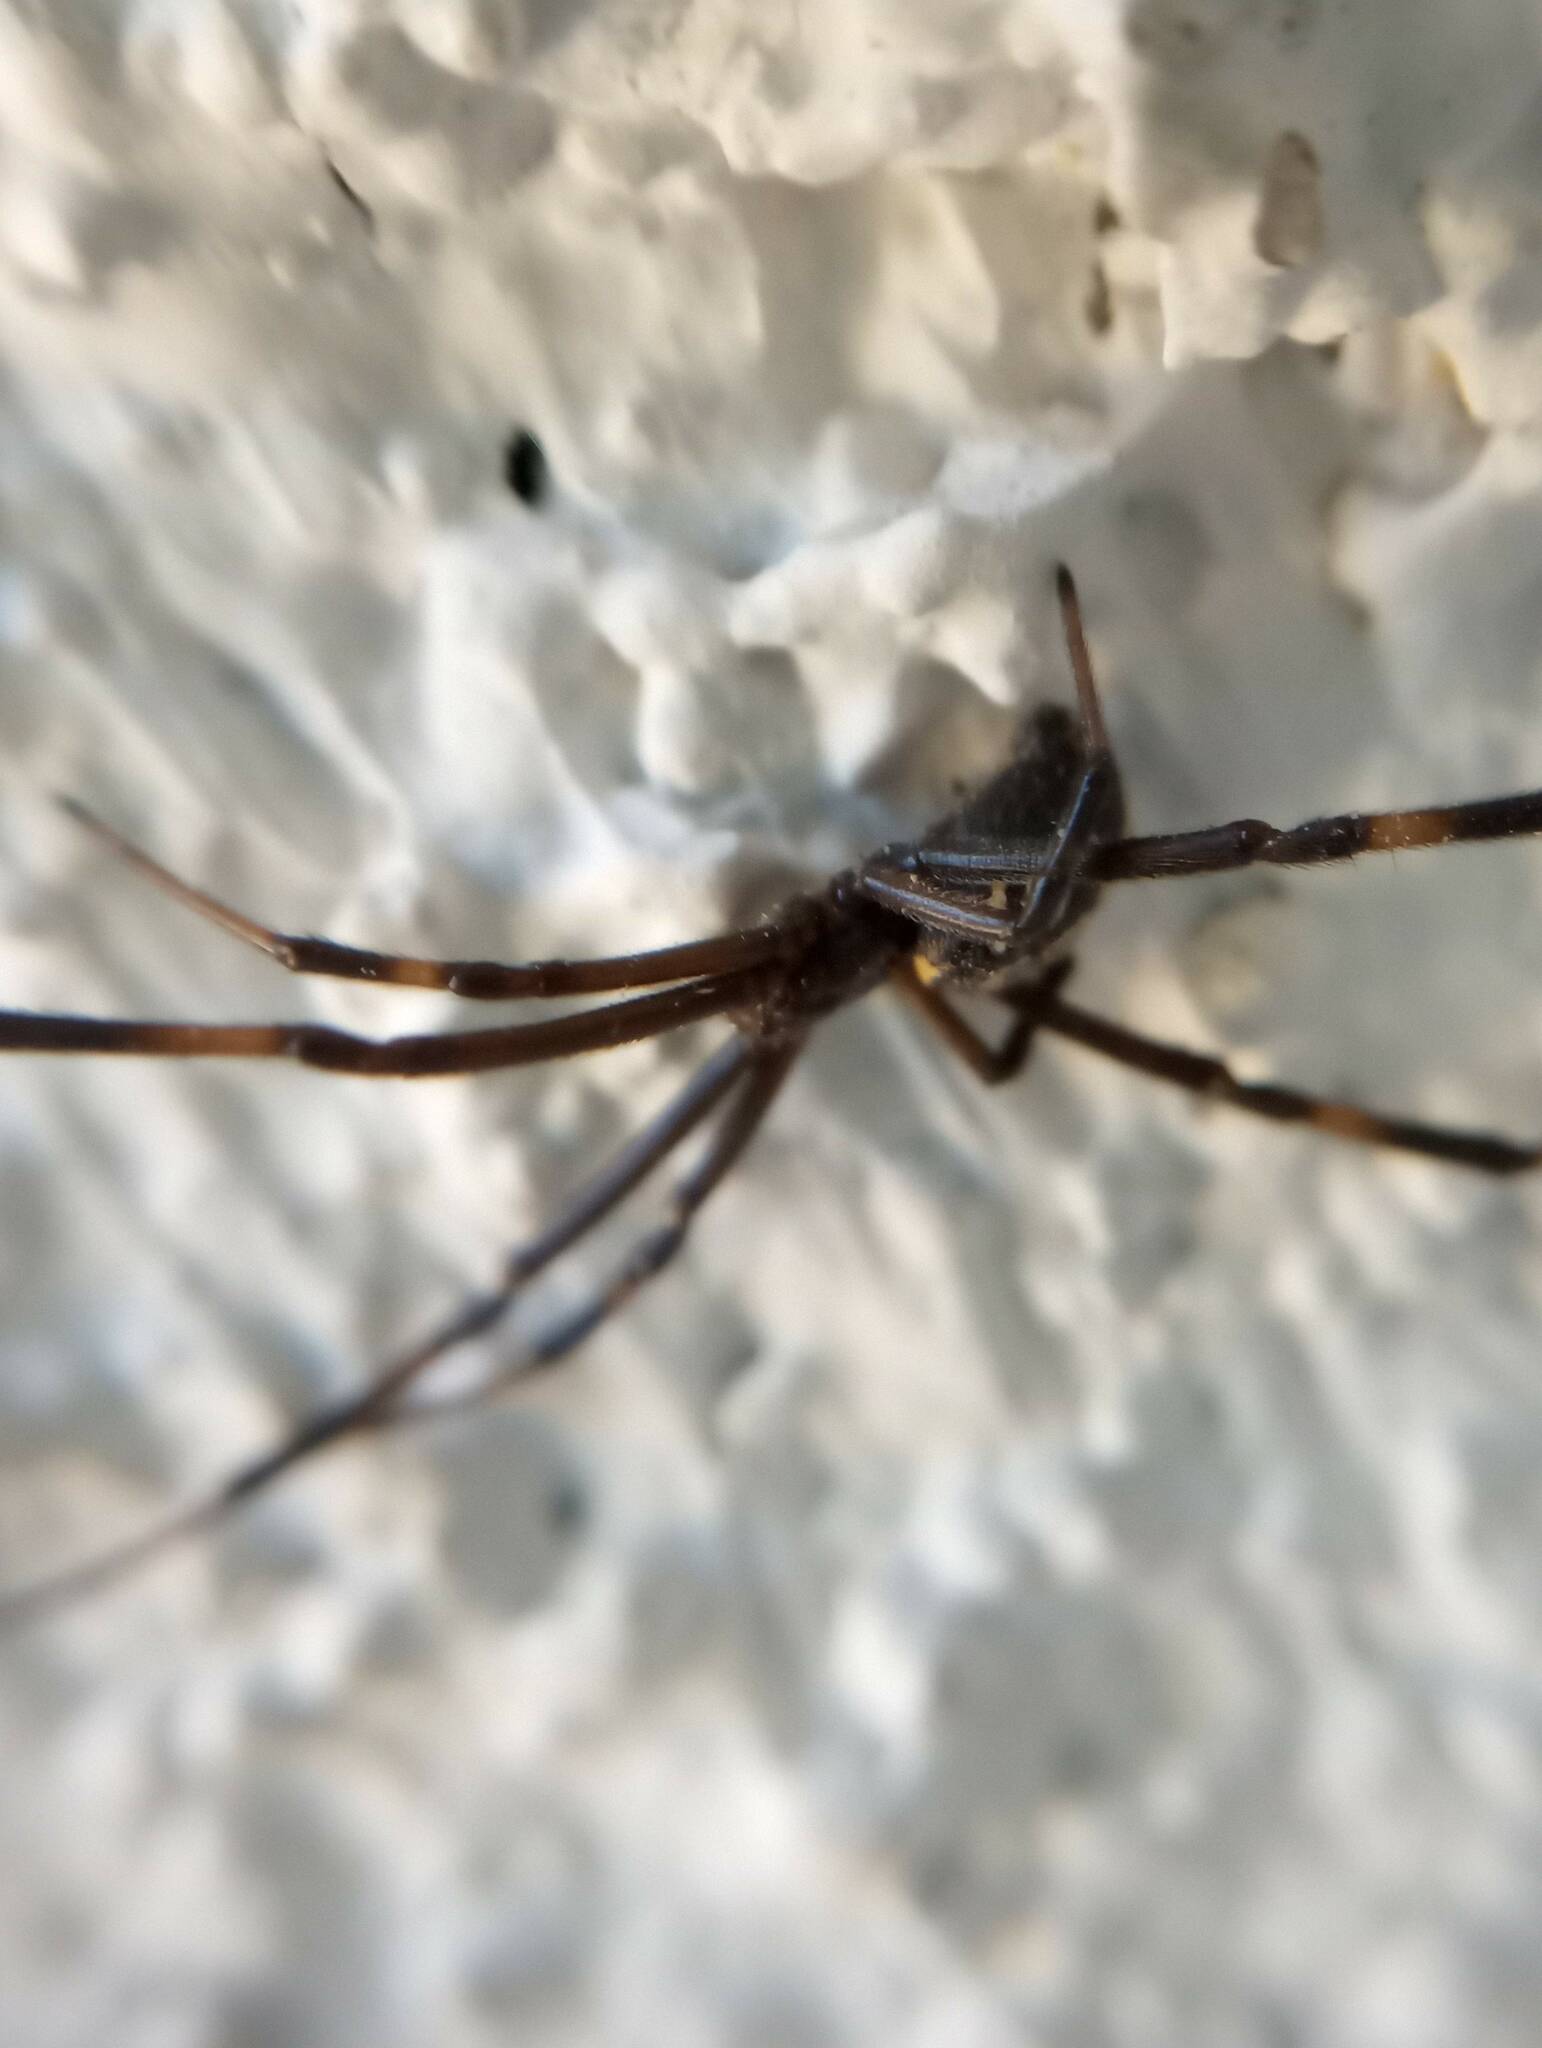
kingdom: Animalia
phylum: Arthropoda
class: Arachnida
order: Araneae
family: Theridiidae
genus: Latrodectus
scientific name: Latrodectus hesperus
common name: Western black widow
